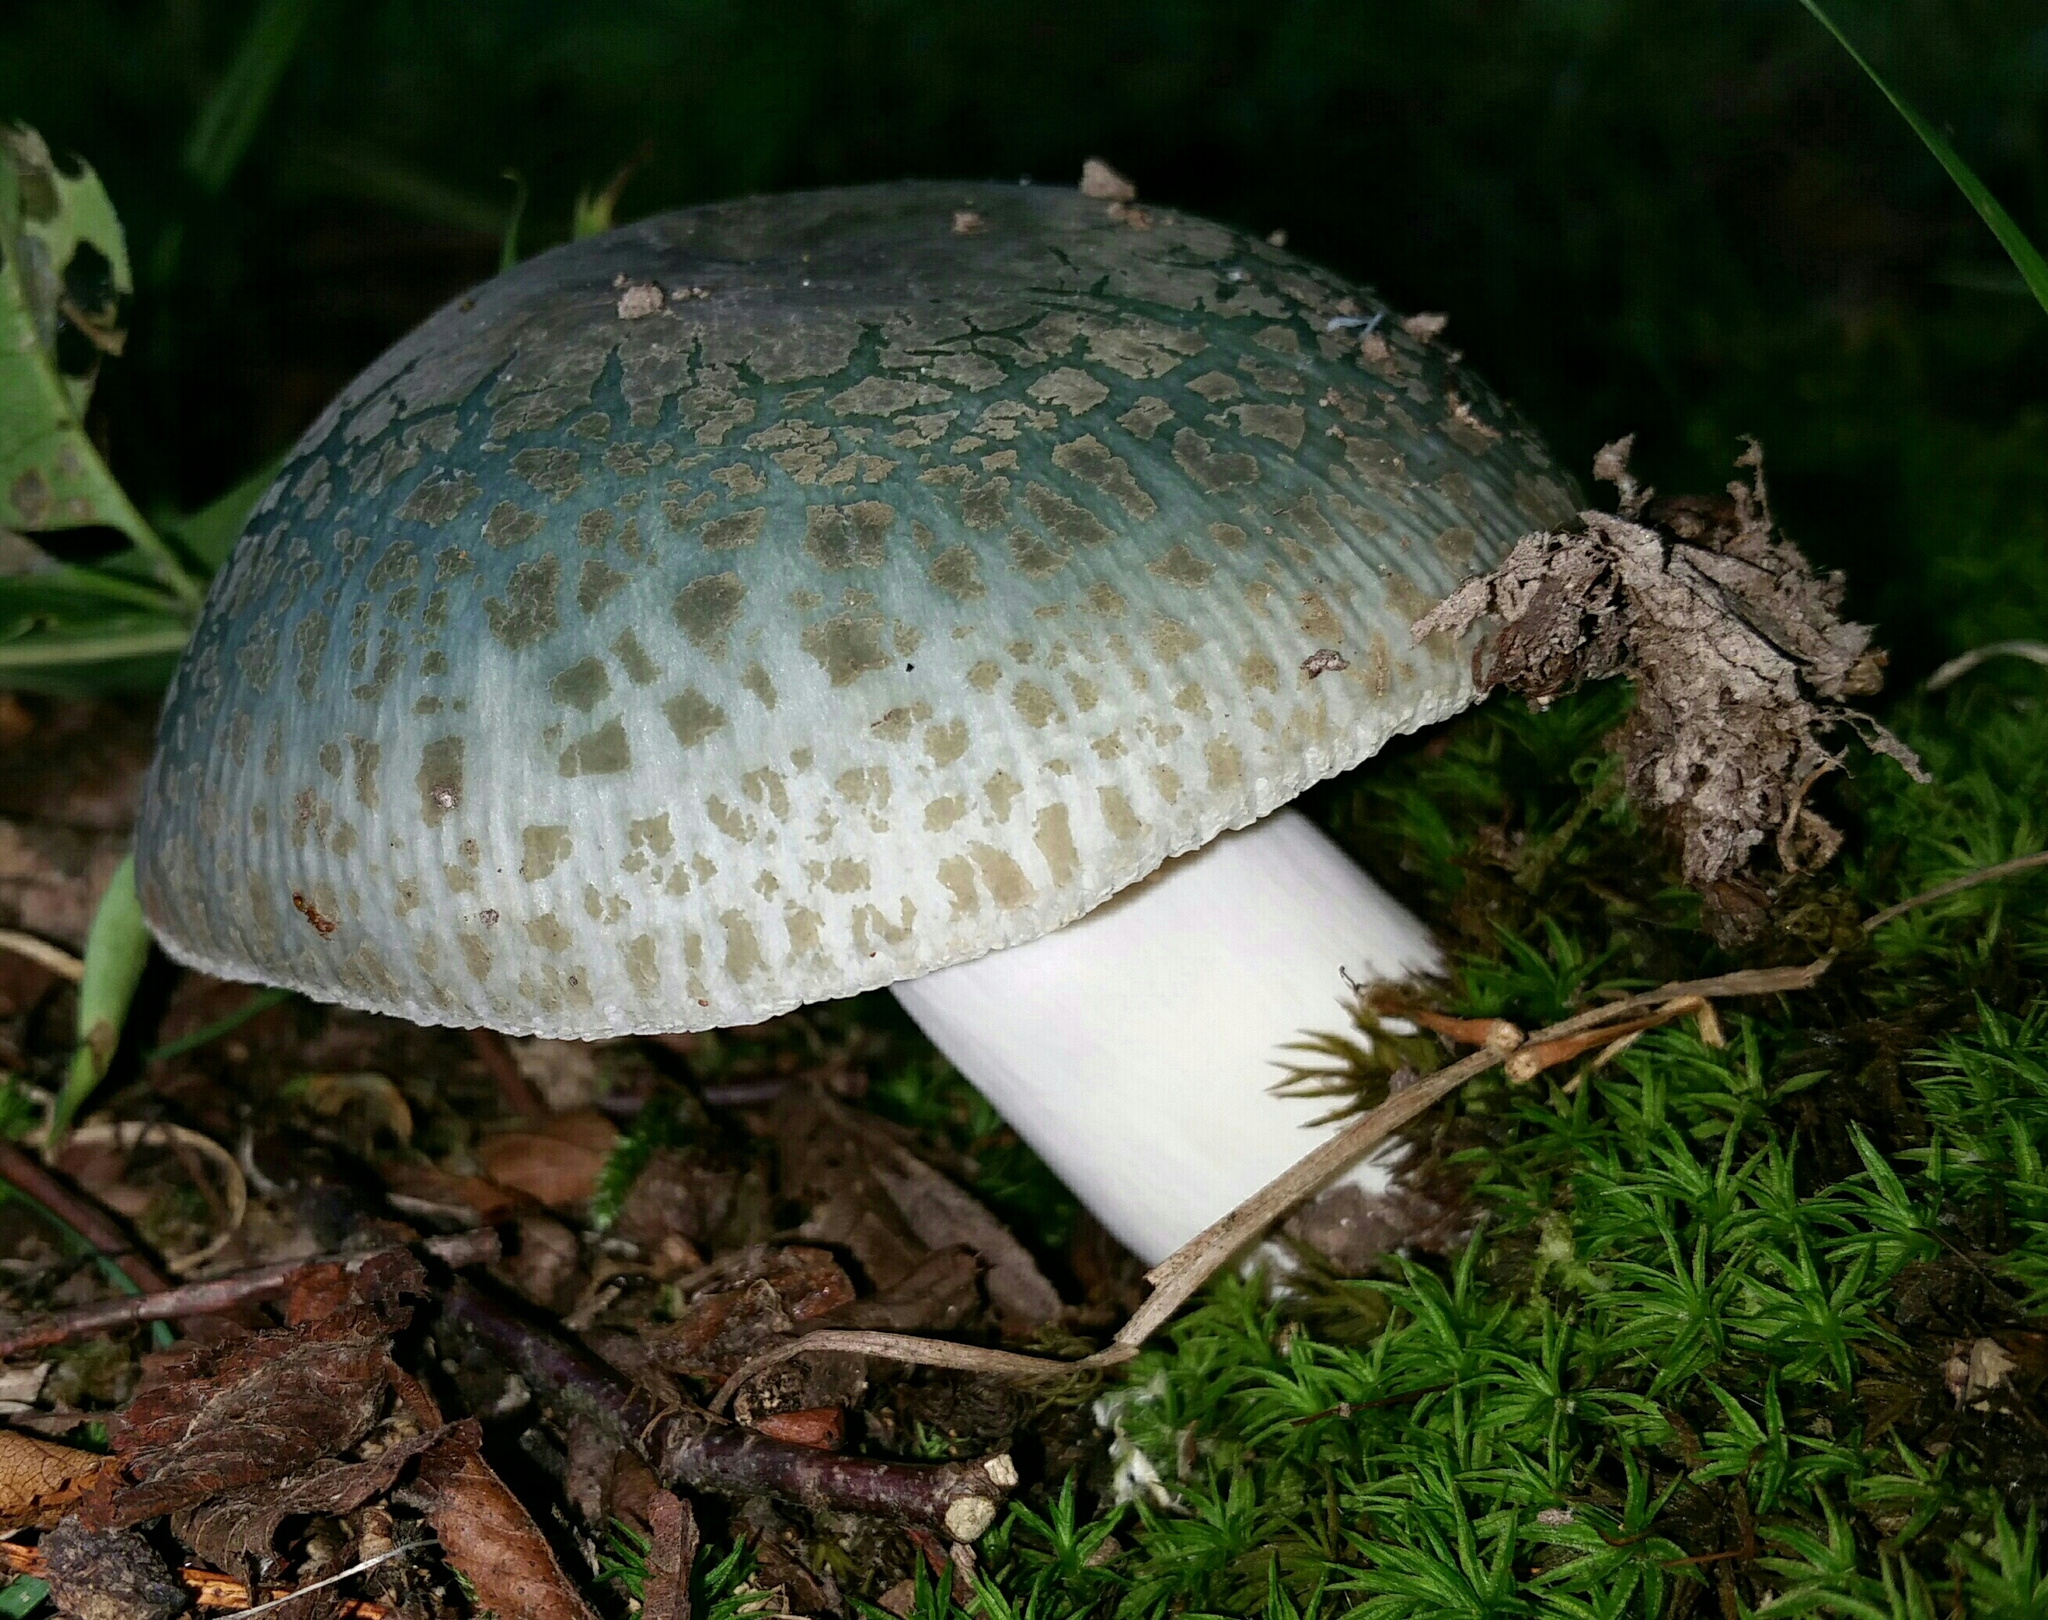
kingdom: Fungi
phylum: Basidiomycota
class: Agaricomycetes
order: Russulales
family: Russulaceae
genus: Russula
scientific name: Russula parvovirescens
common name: Blue-green cracking russula
